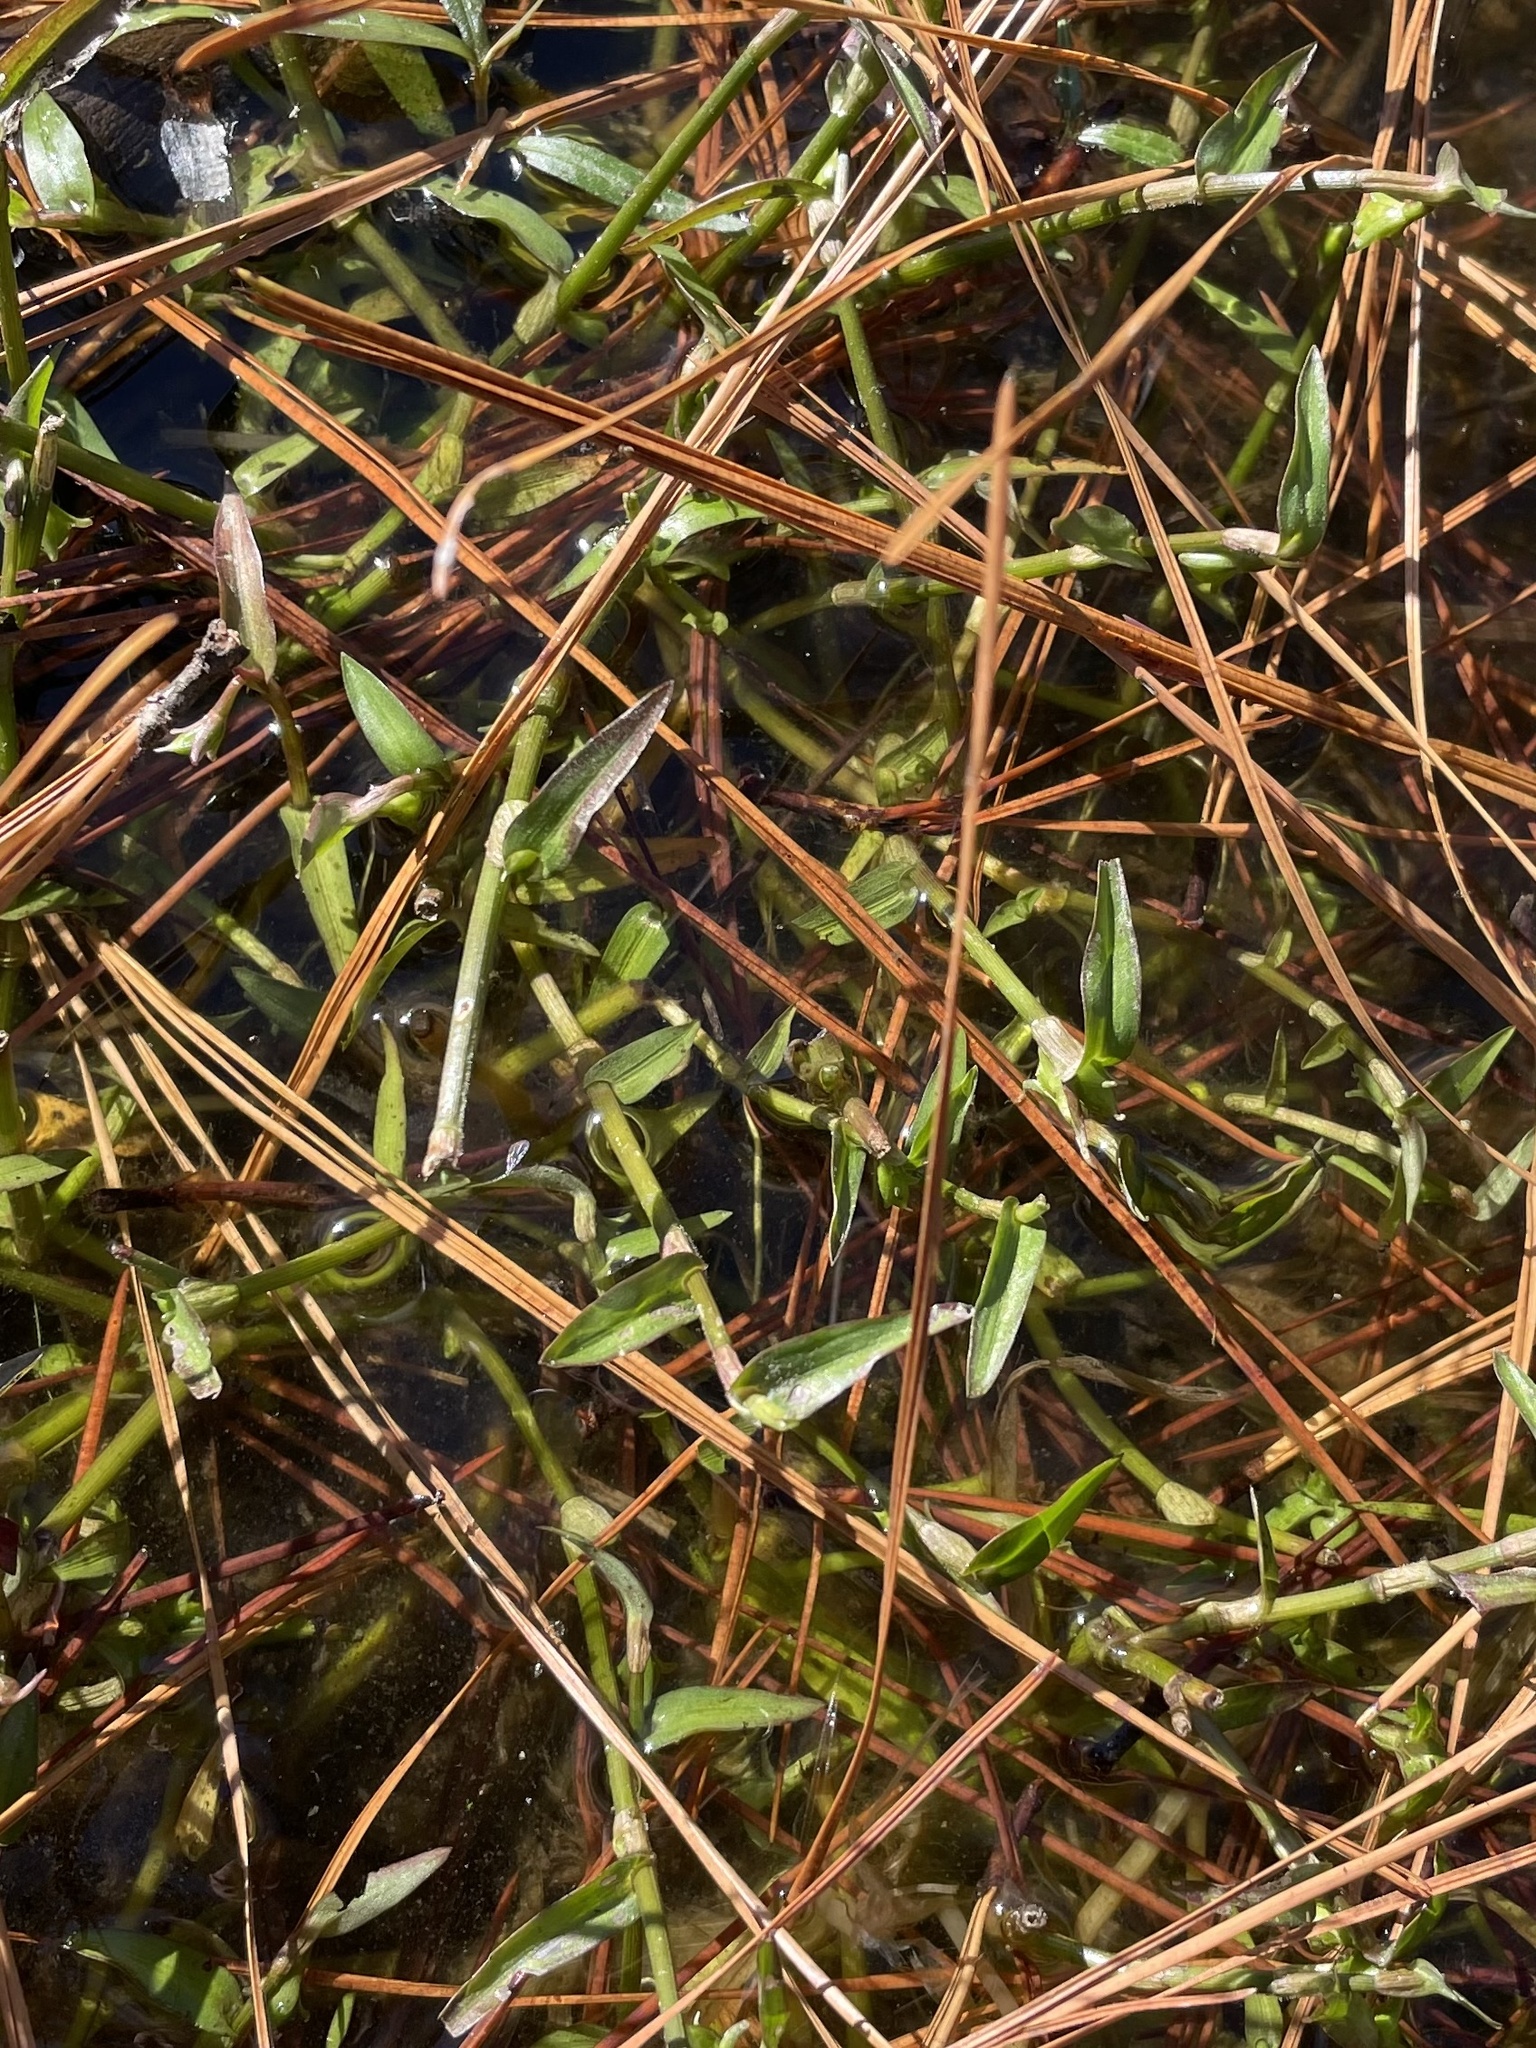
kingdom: Plantae
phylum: Tracheophyta
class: Liliopsida
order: Commelinales
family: Commelinaceae
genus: Murdannia
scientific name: Murdannia keisak
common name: Wartremoving herb
